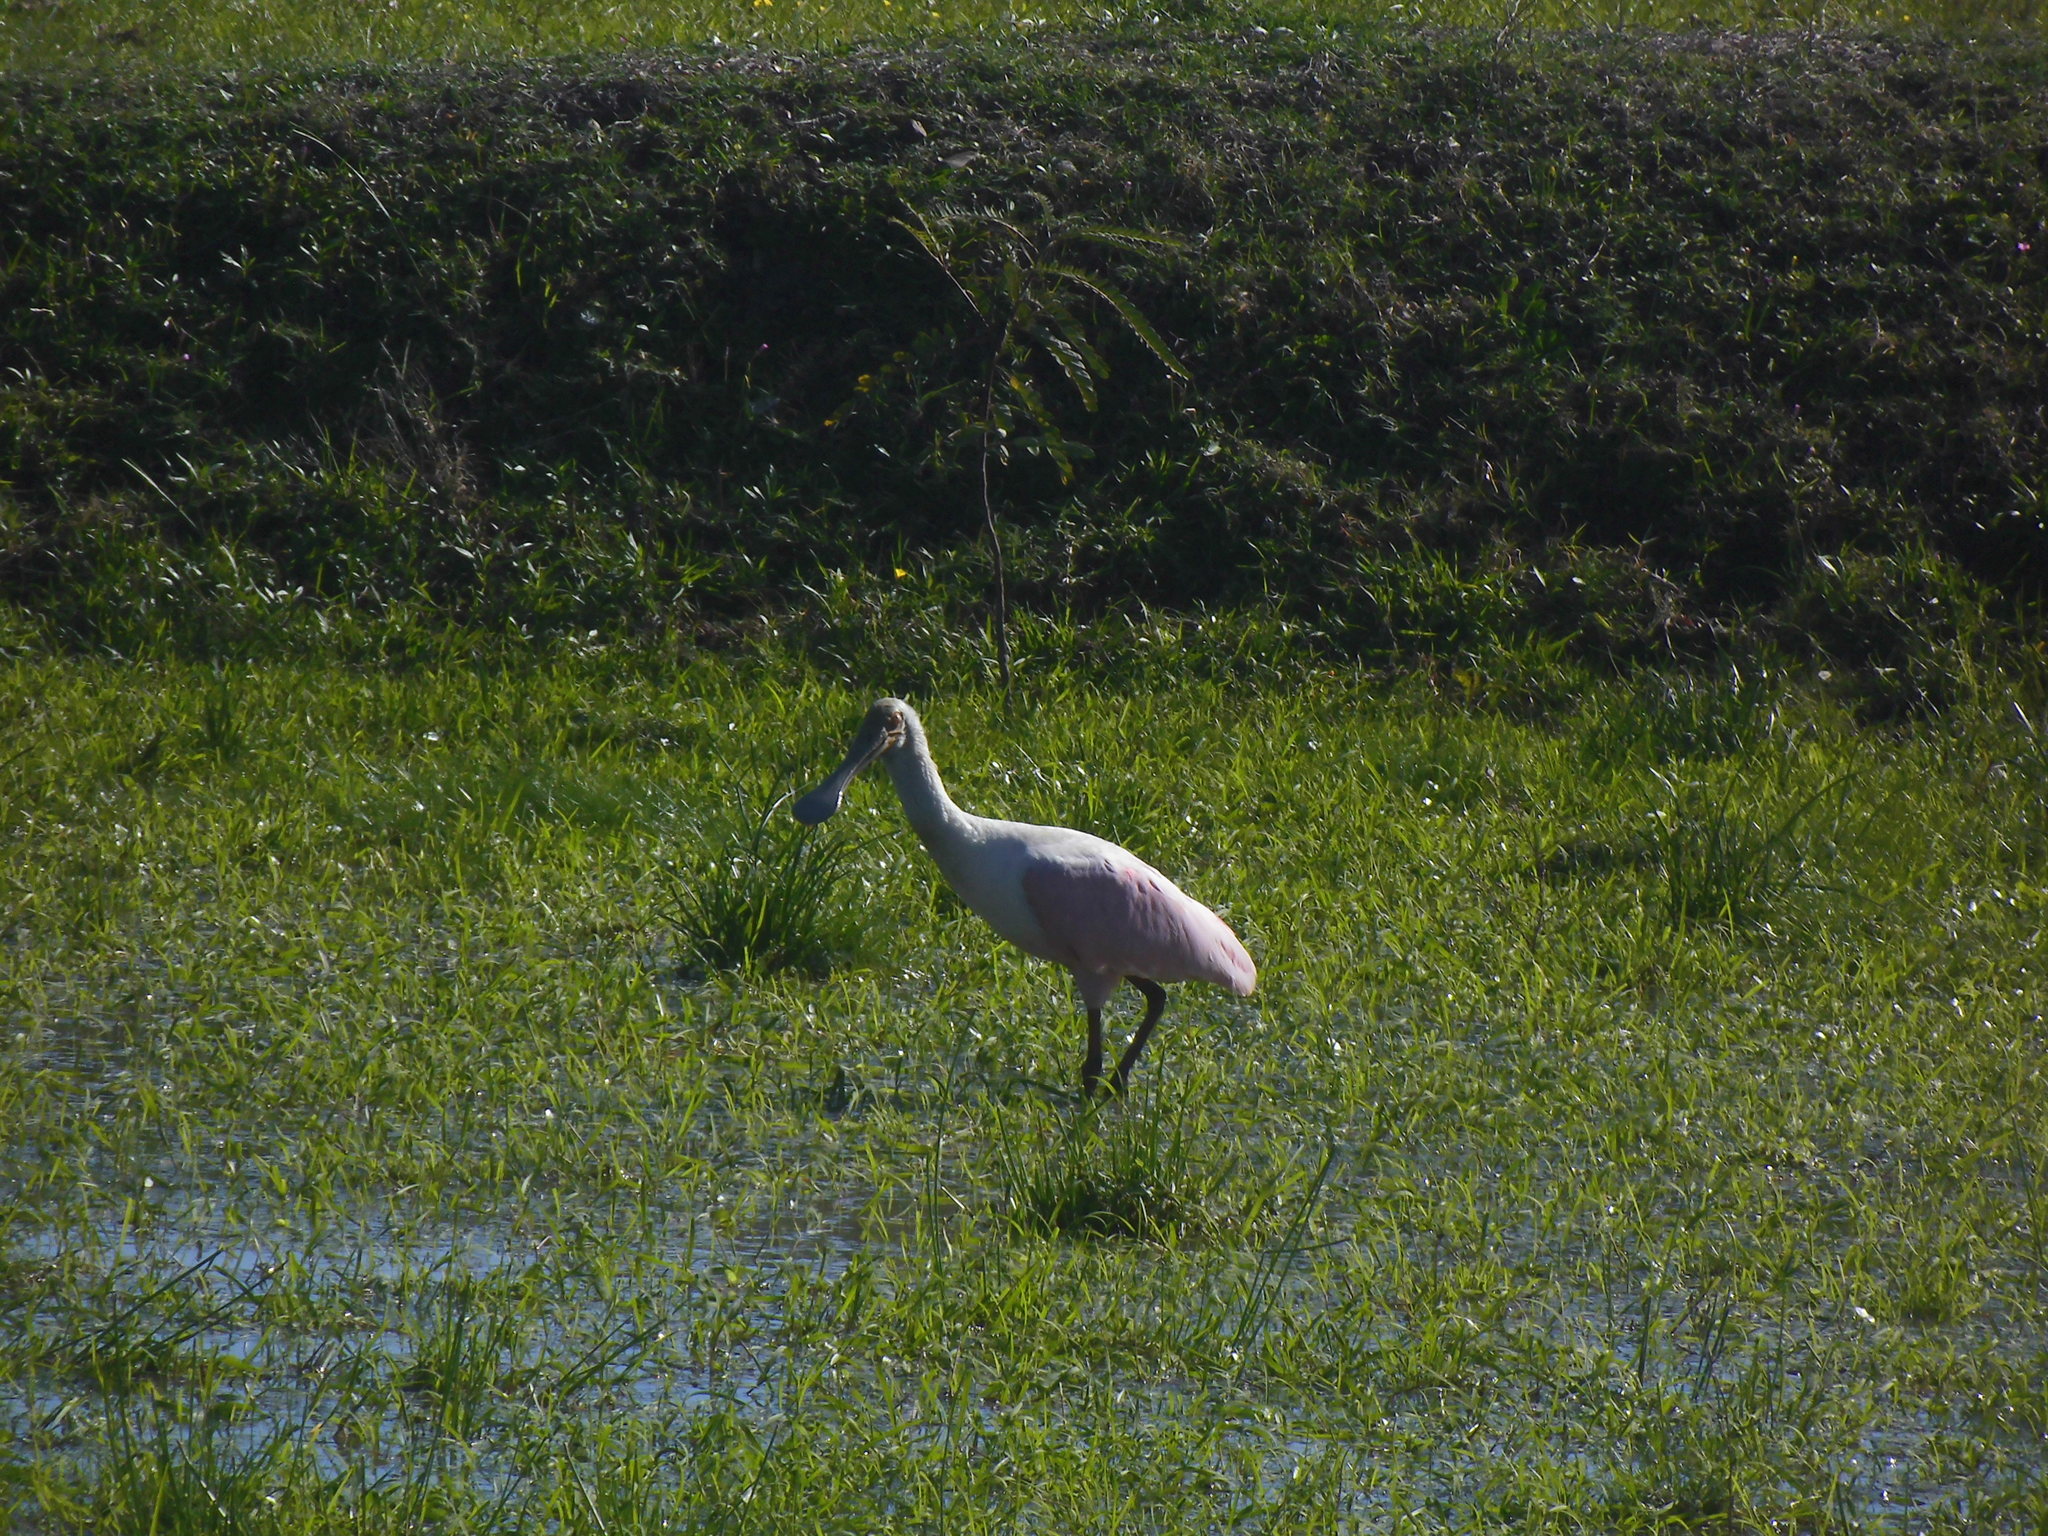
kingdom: Animalia
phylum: Chordata
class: Aves
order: Pelecaniformes
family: Threskiornithidae
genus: Platalea
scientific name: Platalea ajaja
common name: Roseate spoonbill
